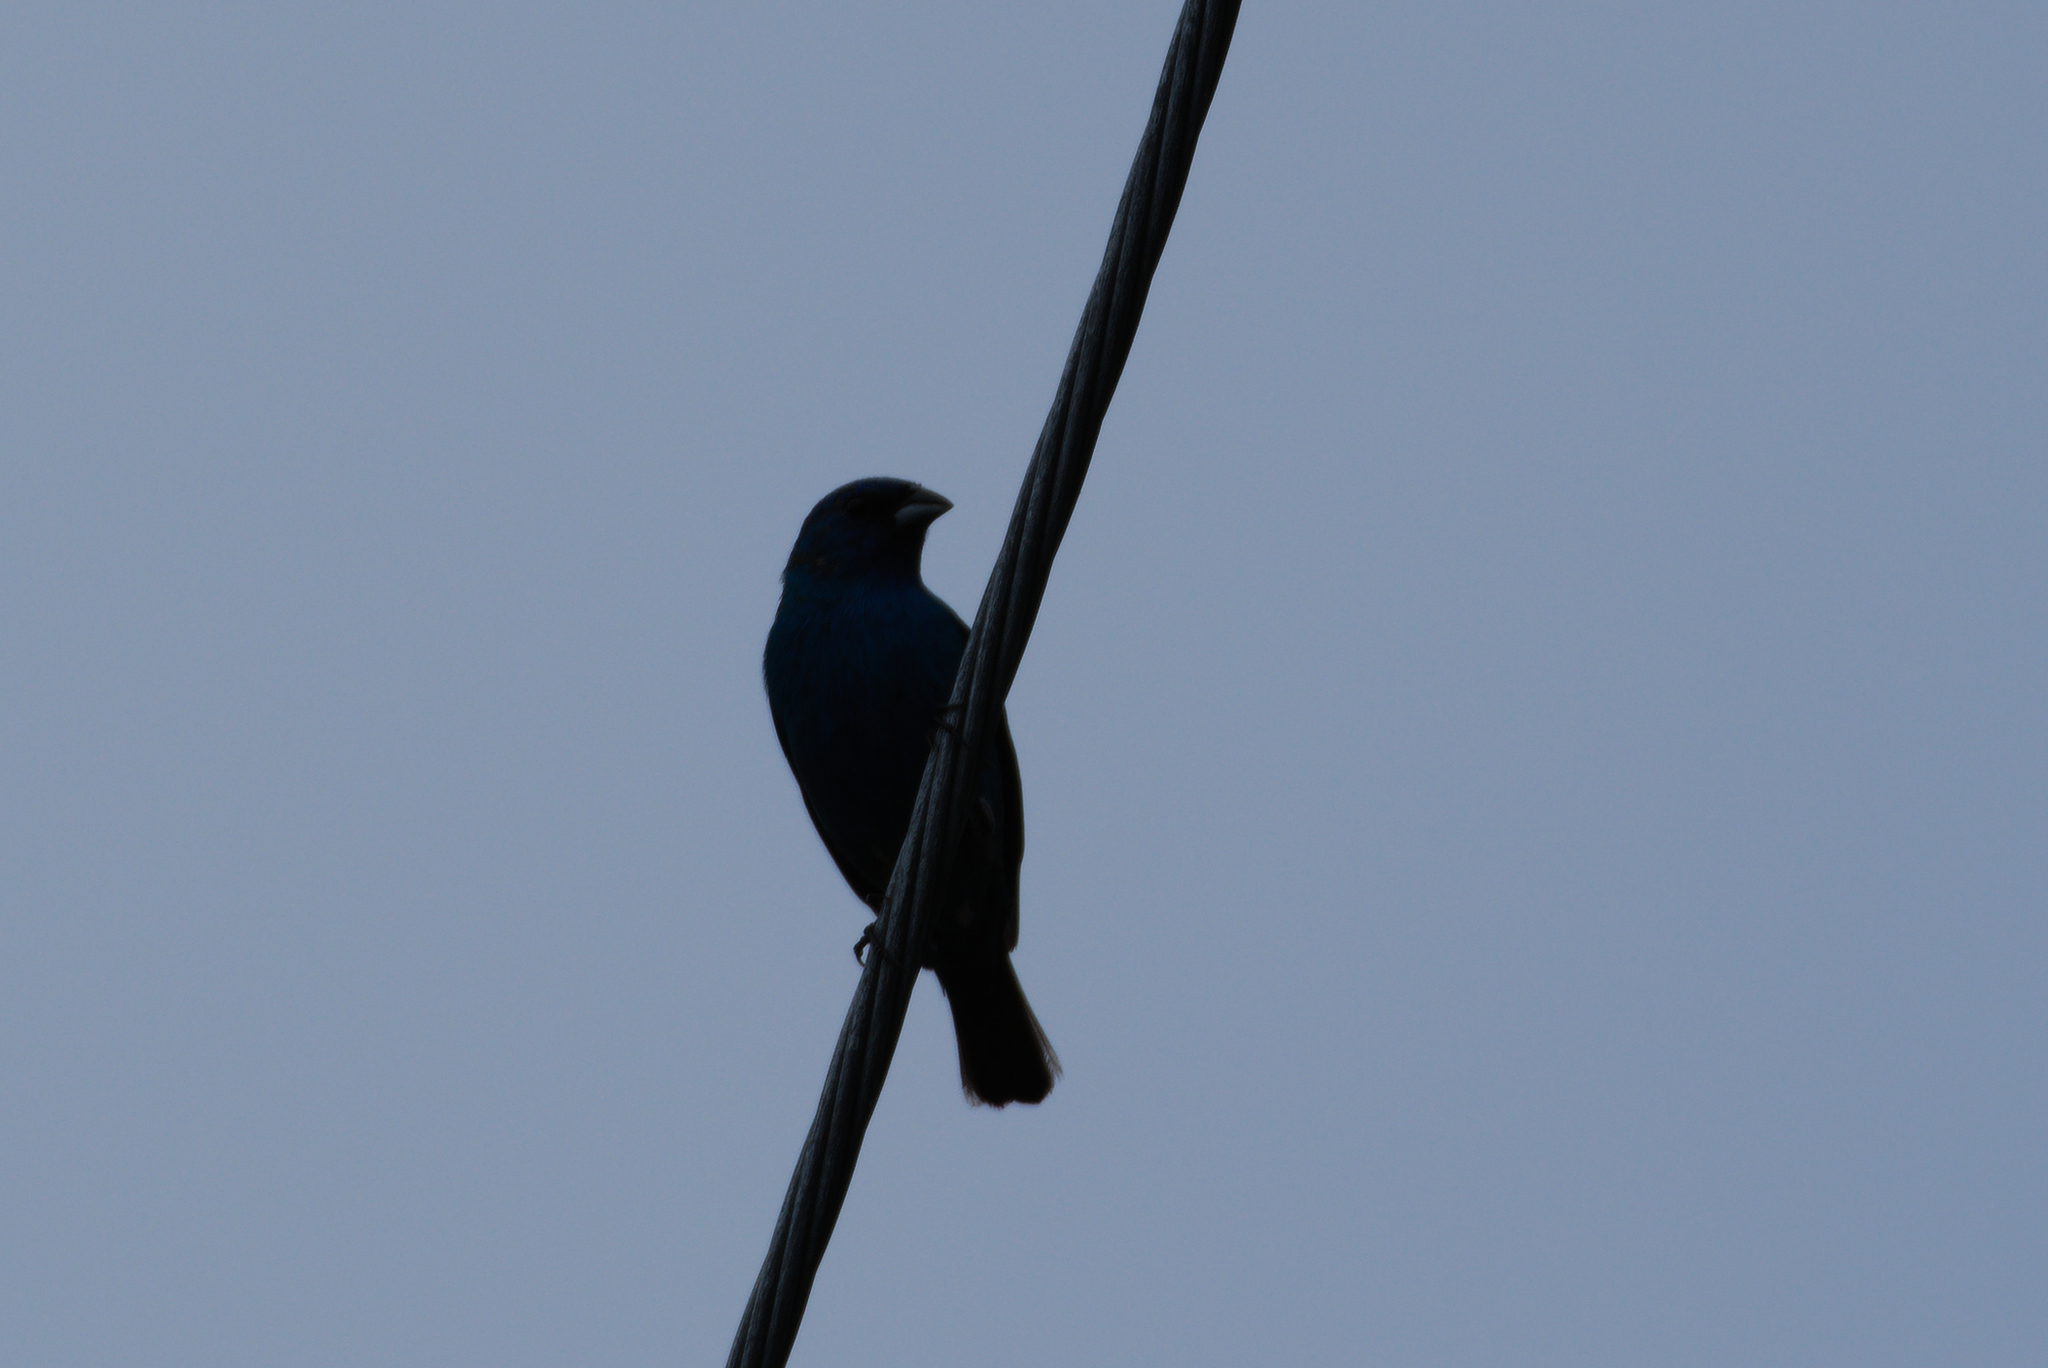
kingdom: Animalia
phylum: Chordata
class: Aves
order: Passeriformes
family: Cardinalidae
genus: Passerina
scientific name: Passerina caerulea
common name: Blue grosbeak
